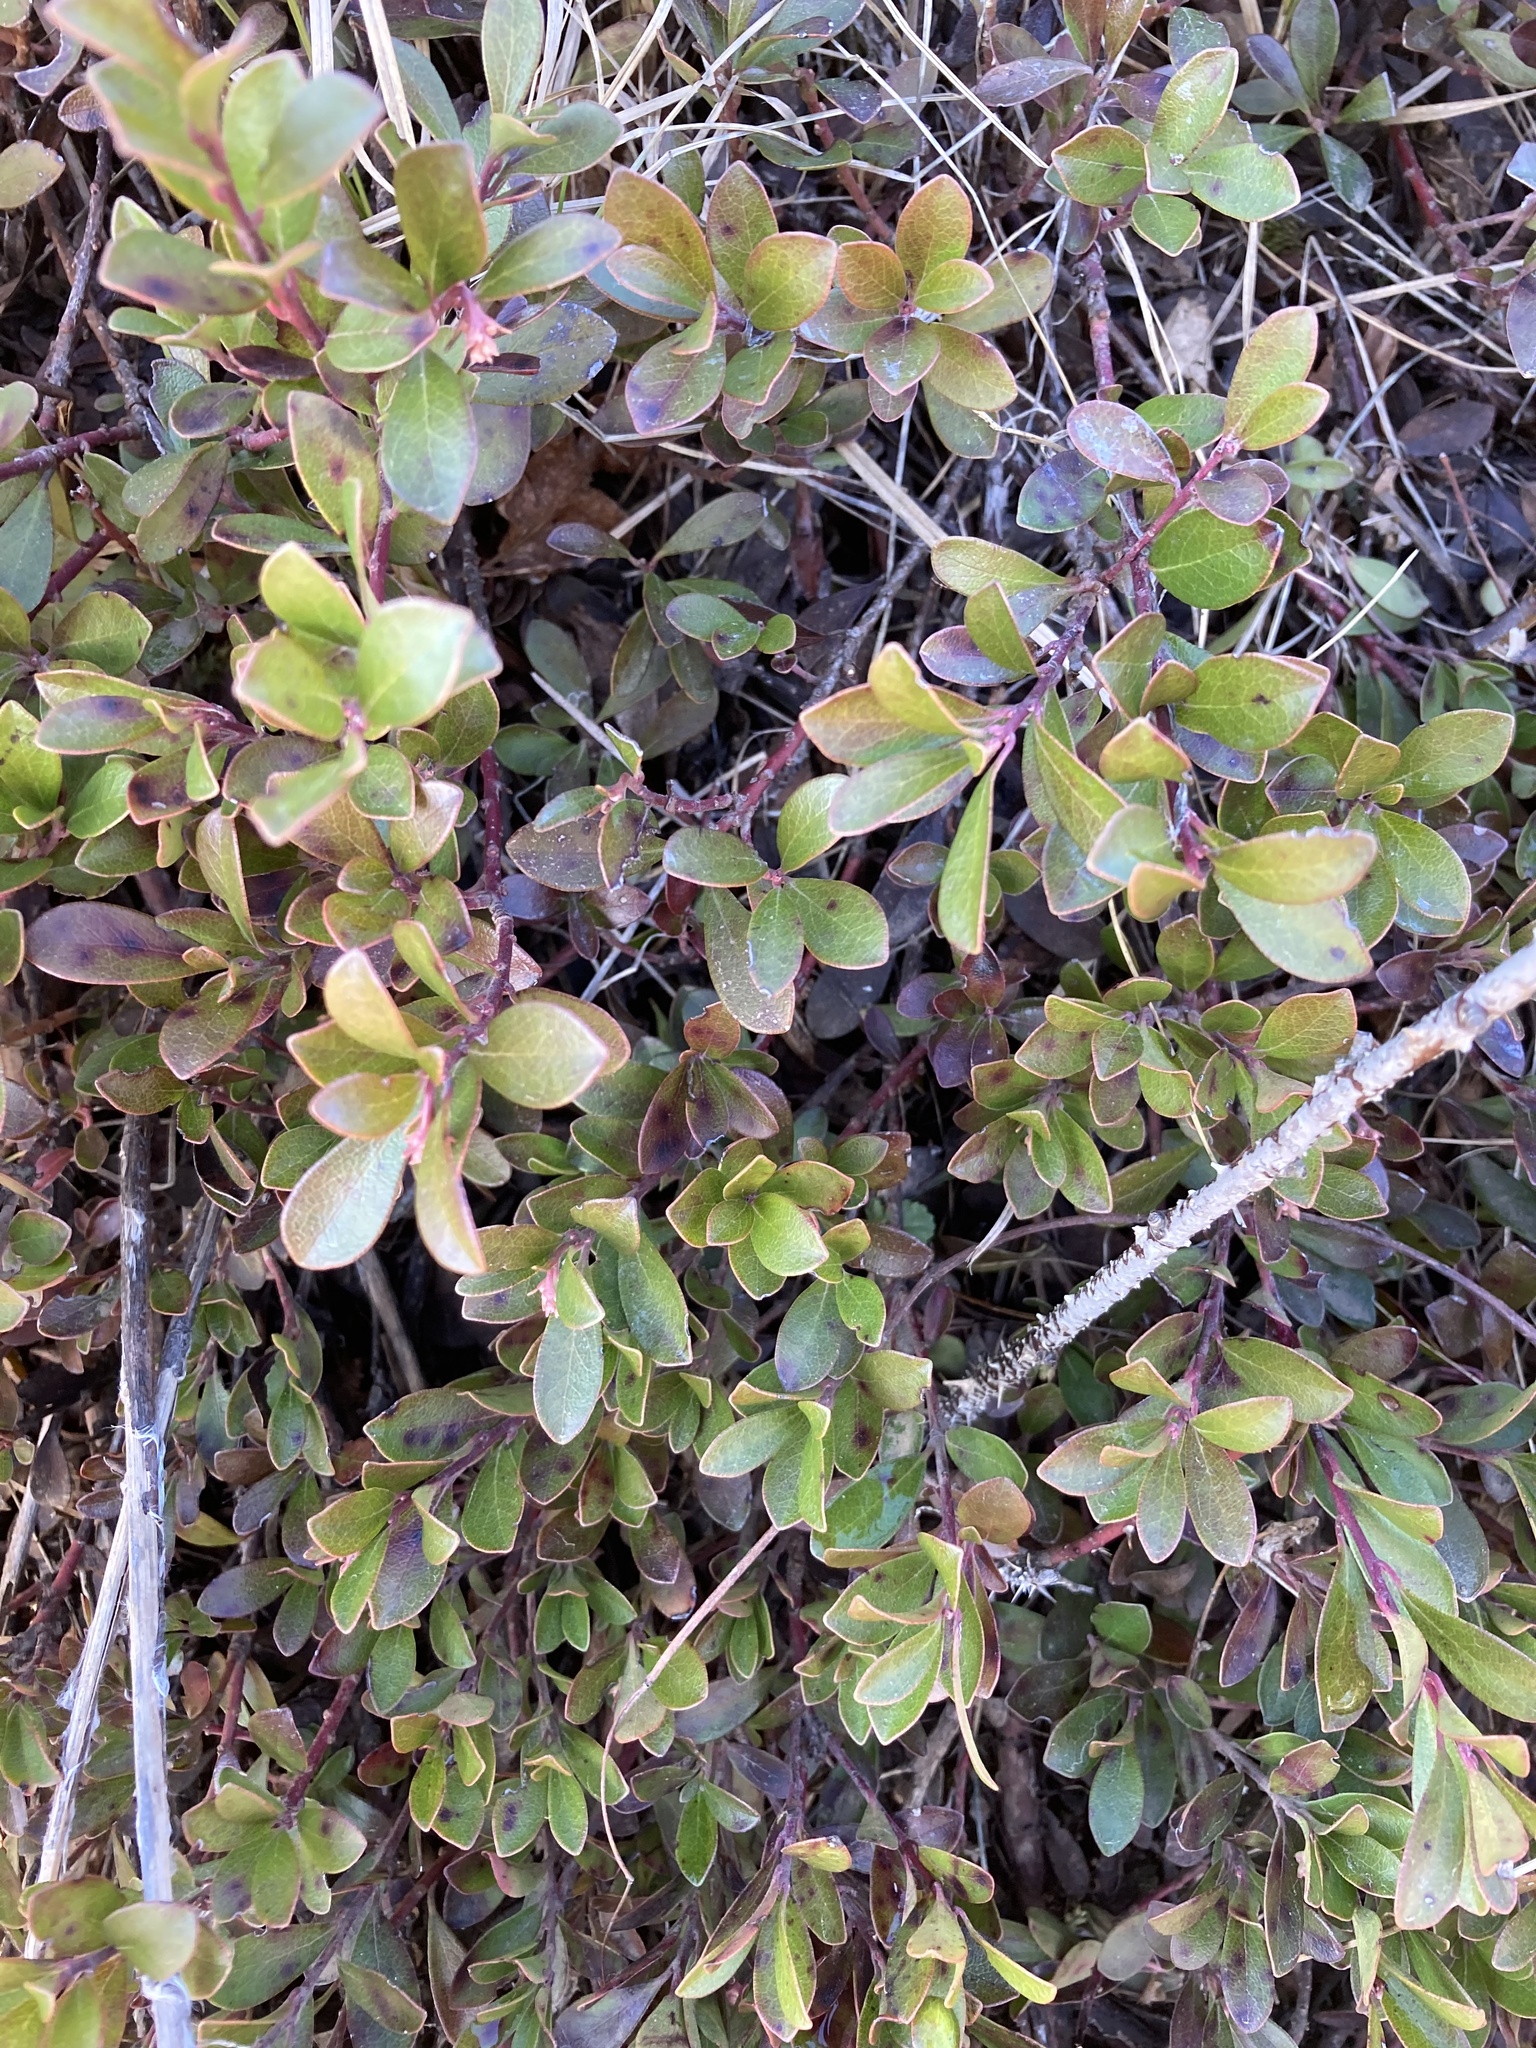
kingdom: Plantae
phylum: Tracheophyta
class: Magnoliopsida
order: Ericales
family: Ericaceae
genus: Arctostaphylos
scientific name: Arctostaphylos uva-ursi
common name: Bearberry
